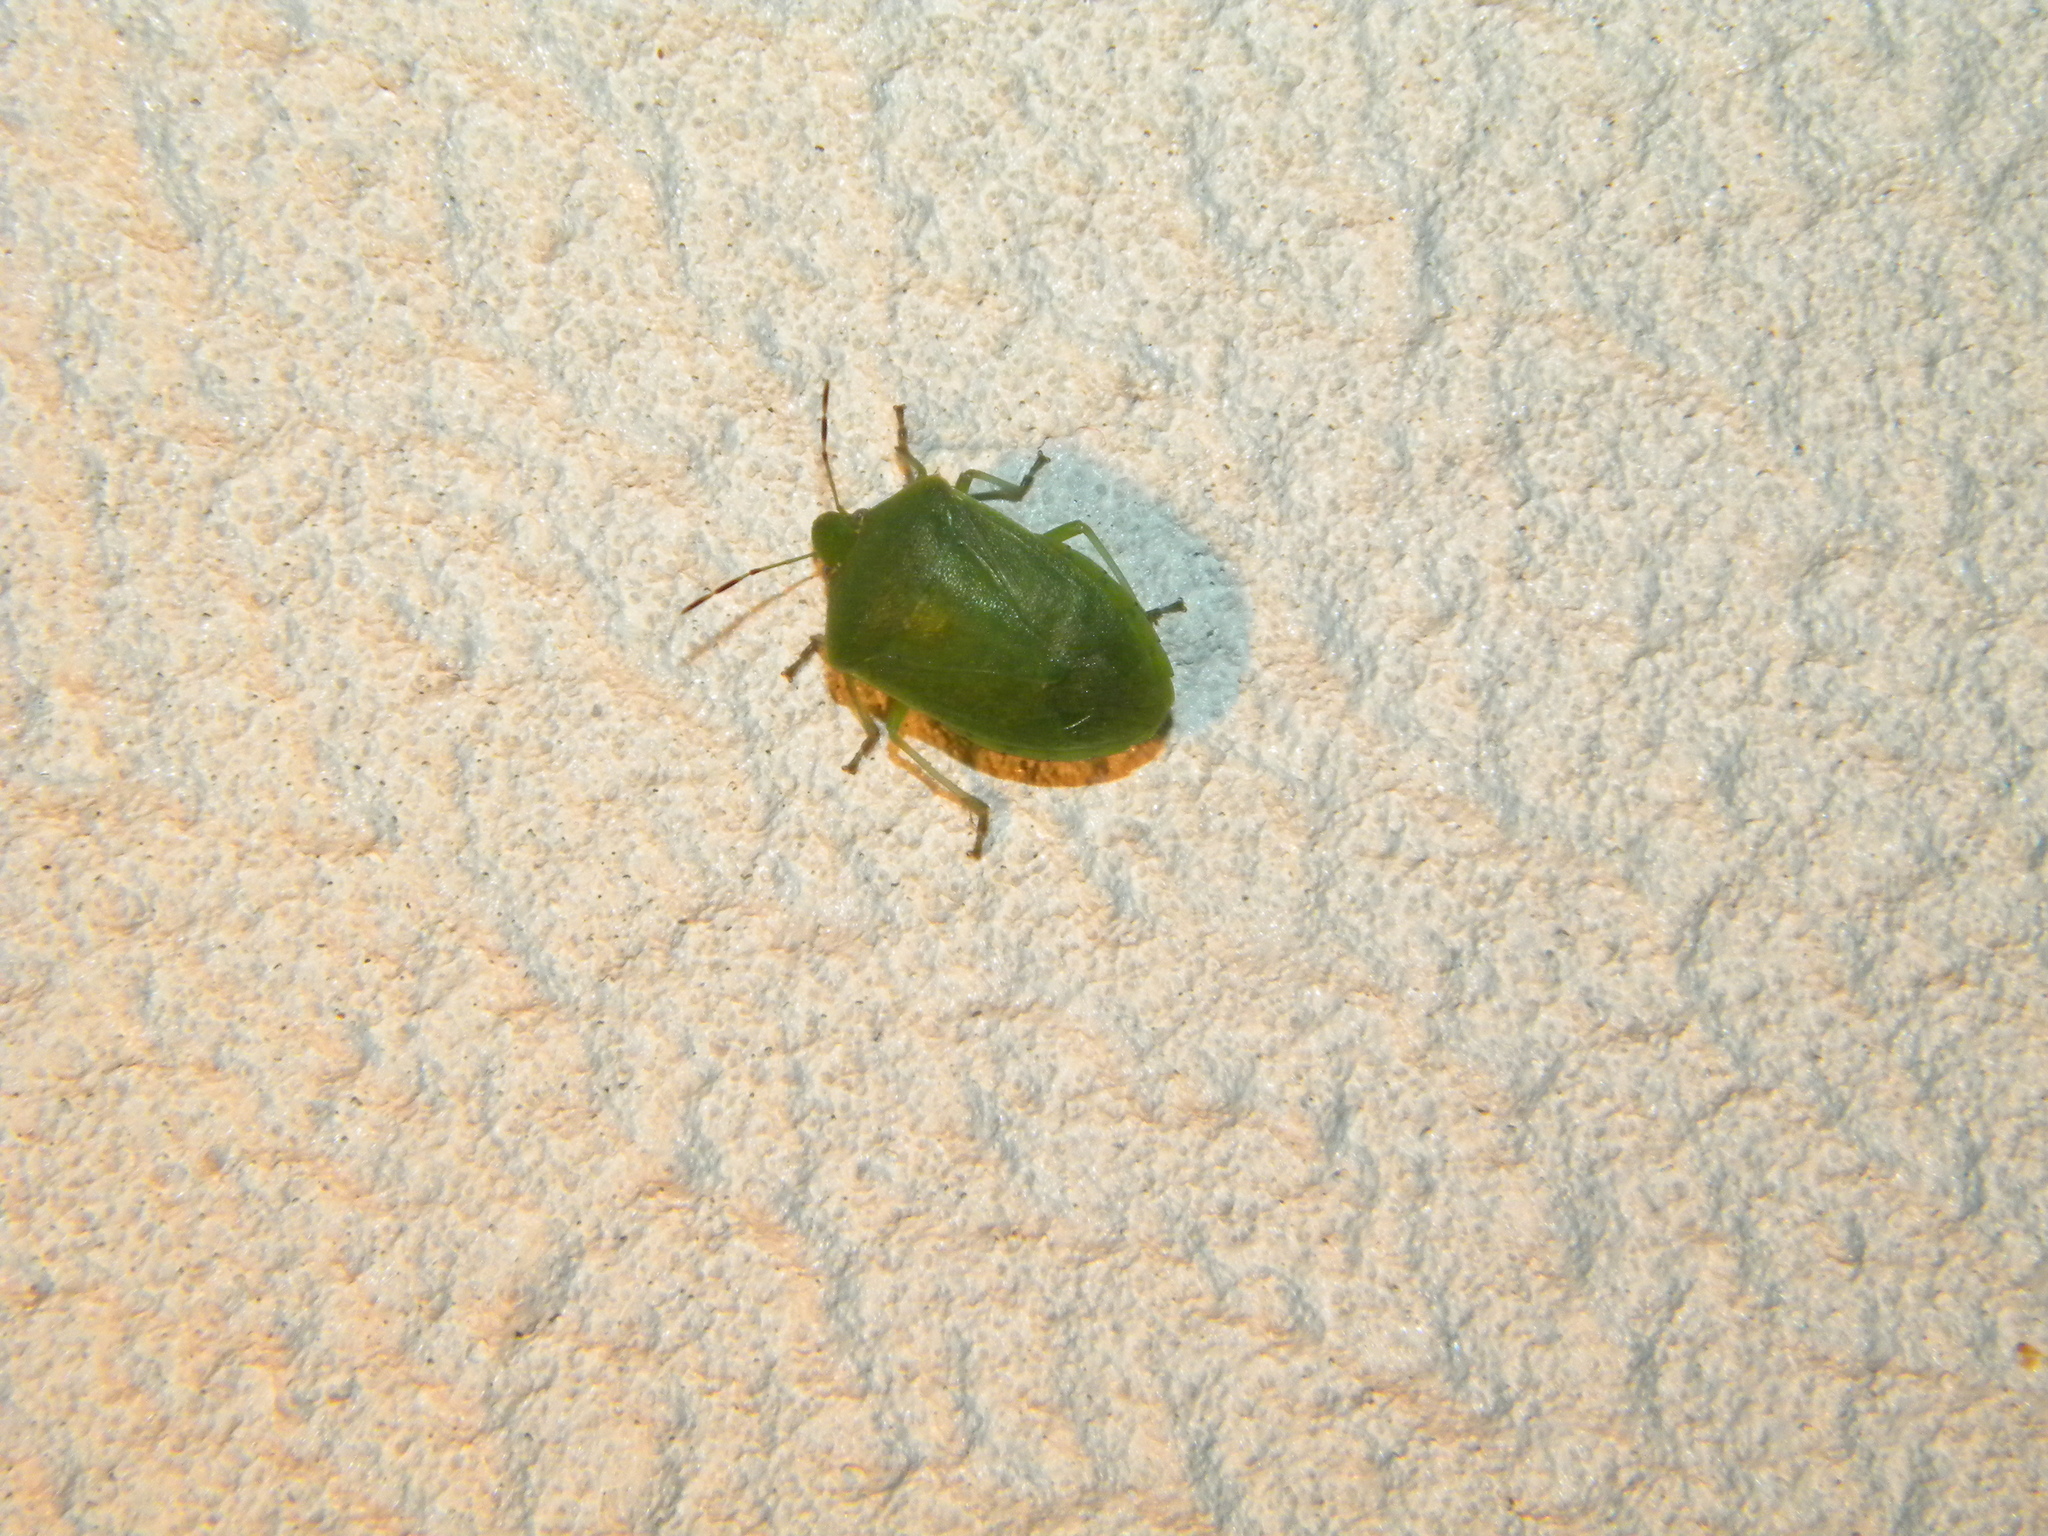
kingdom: Animalia
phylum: Arthropoda
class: Insecta
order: Hemiptera
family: Pentatomidae
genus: Nezara
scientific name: Nezara viridula
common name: Southern green stink bug
